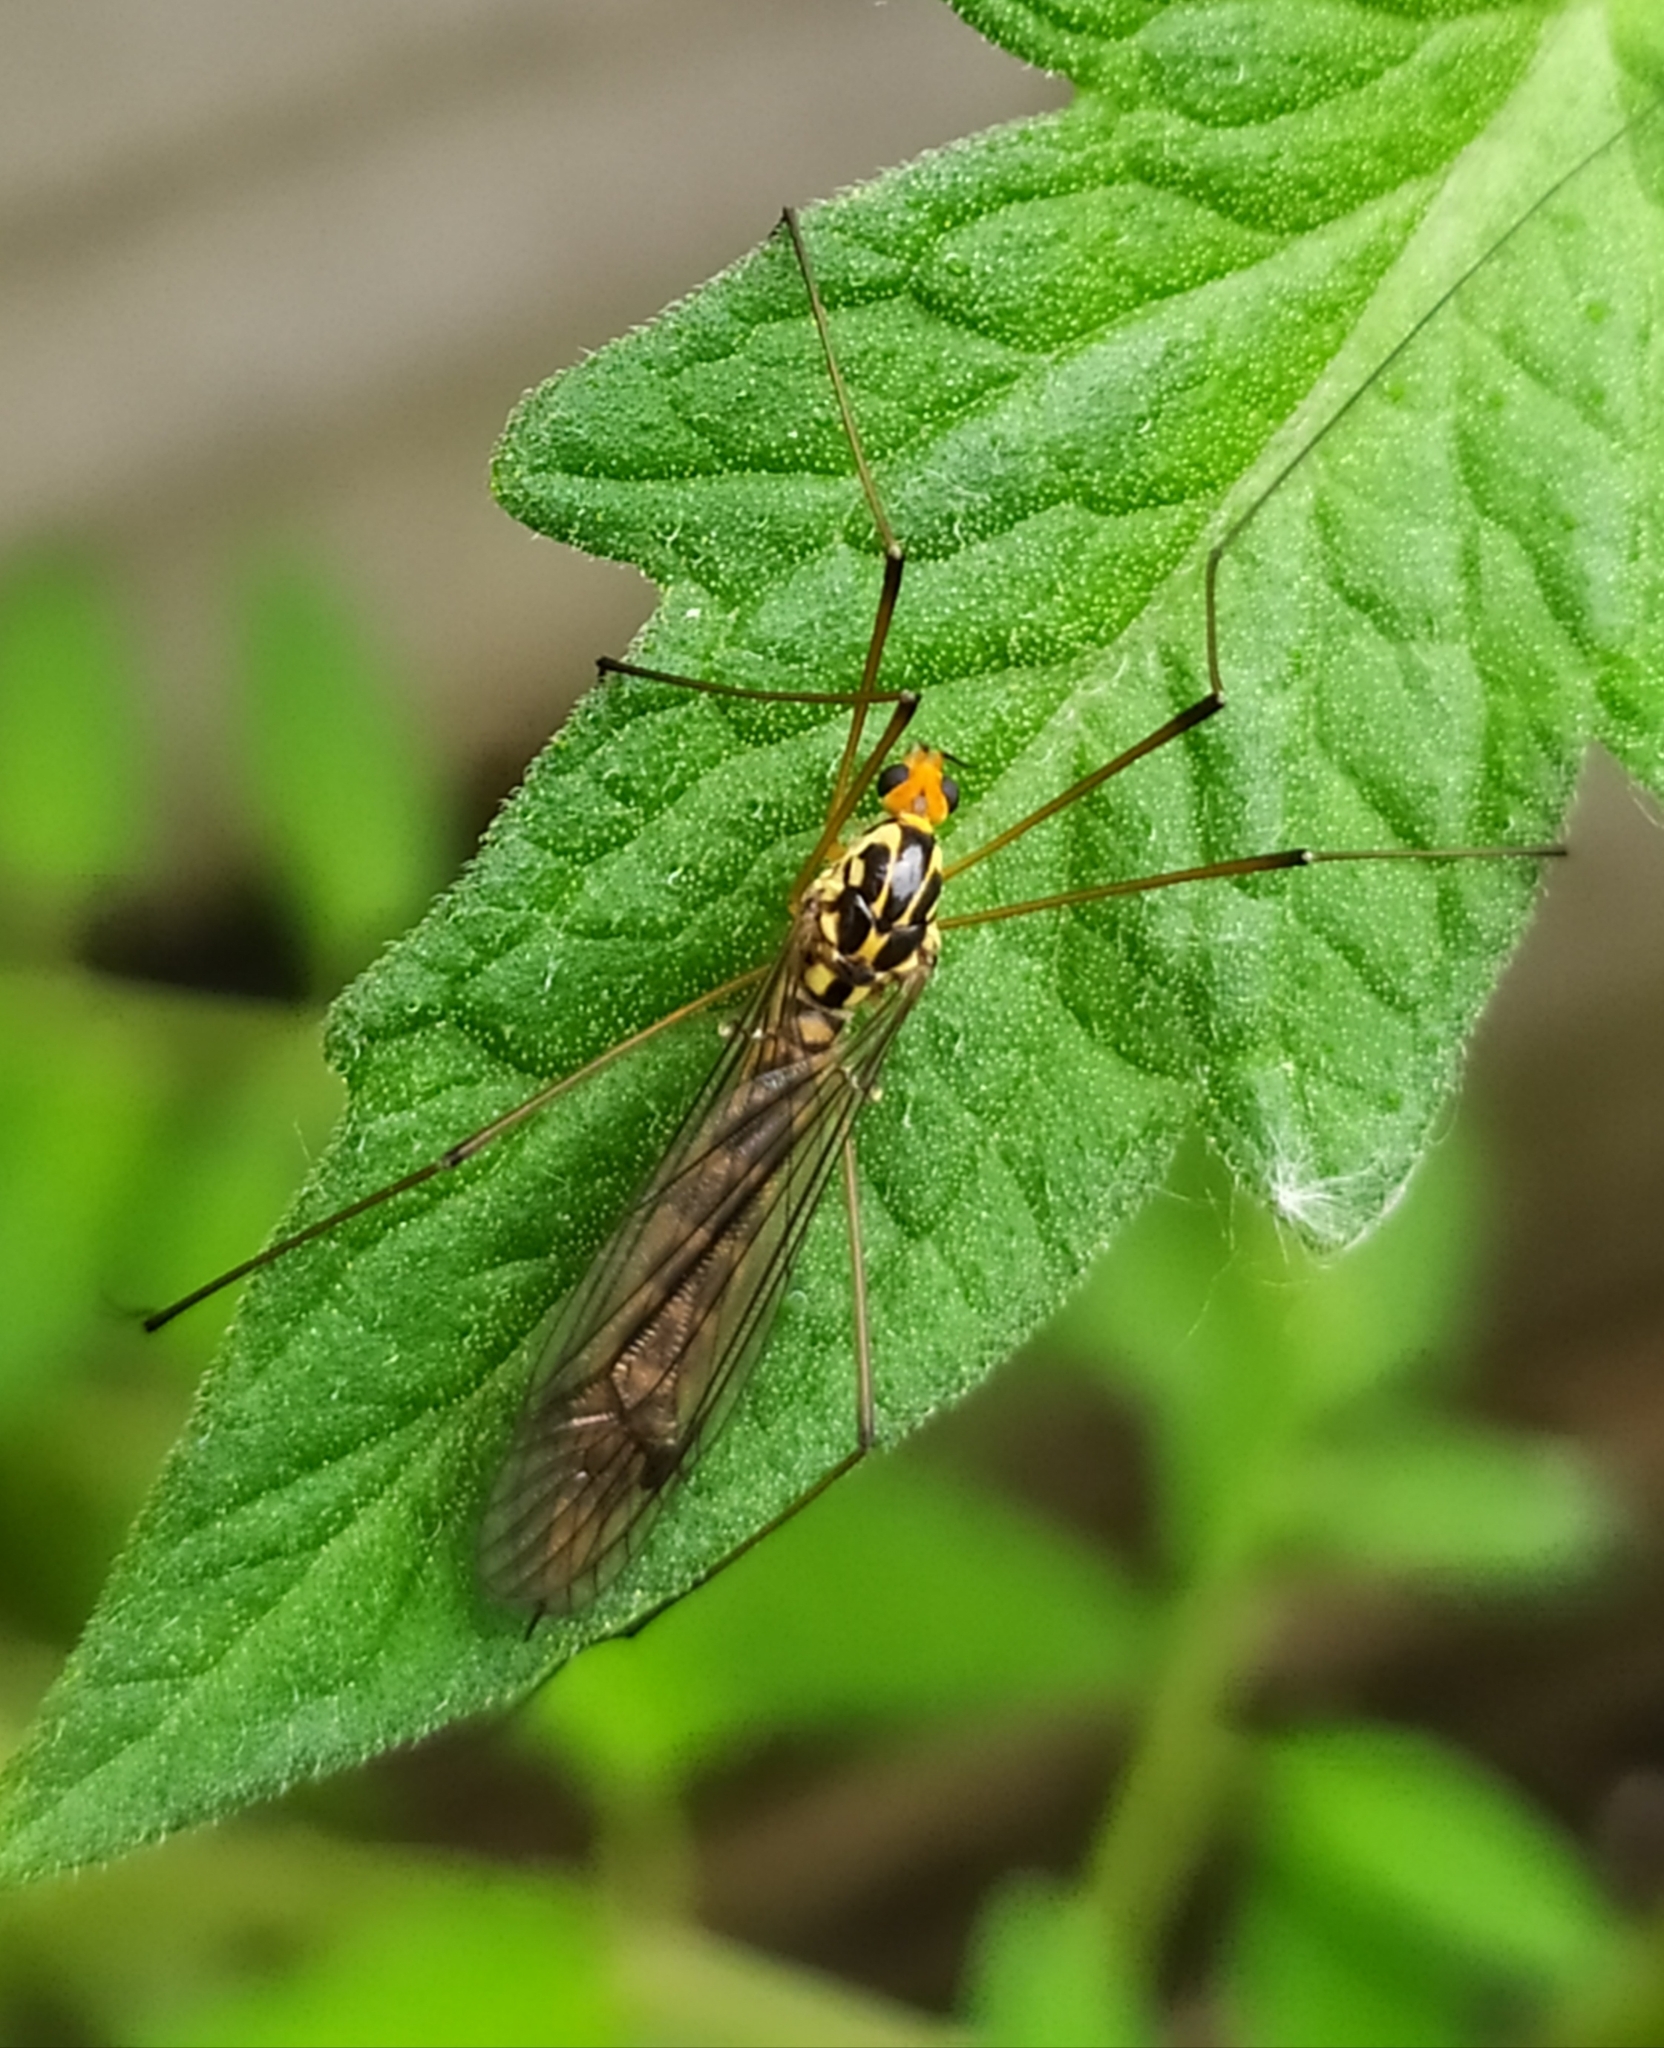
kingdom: Animalia
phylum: Arthropoda
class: Insecta
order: Diptera
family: Tipulidae
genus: Nephrotoma
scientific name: Nephrotoma flavipalpis
